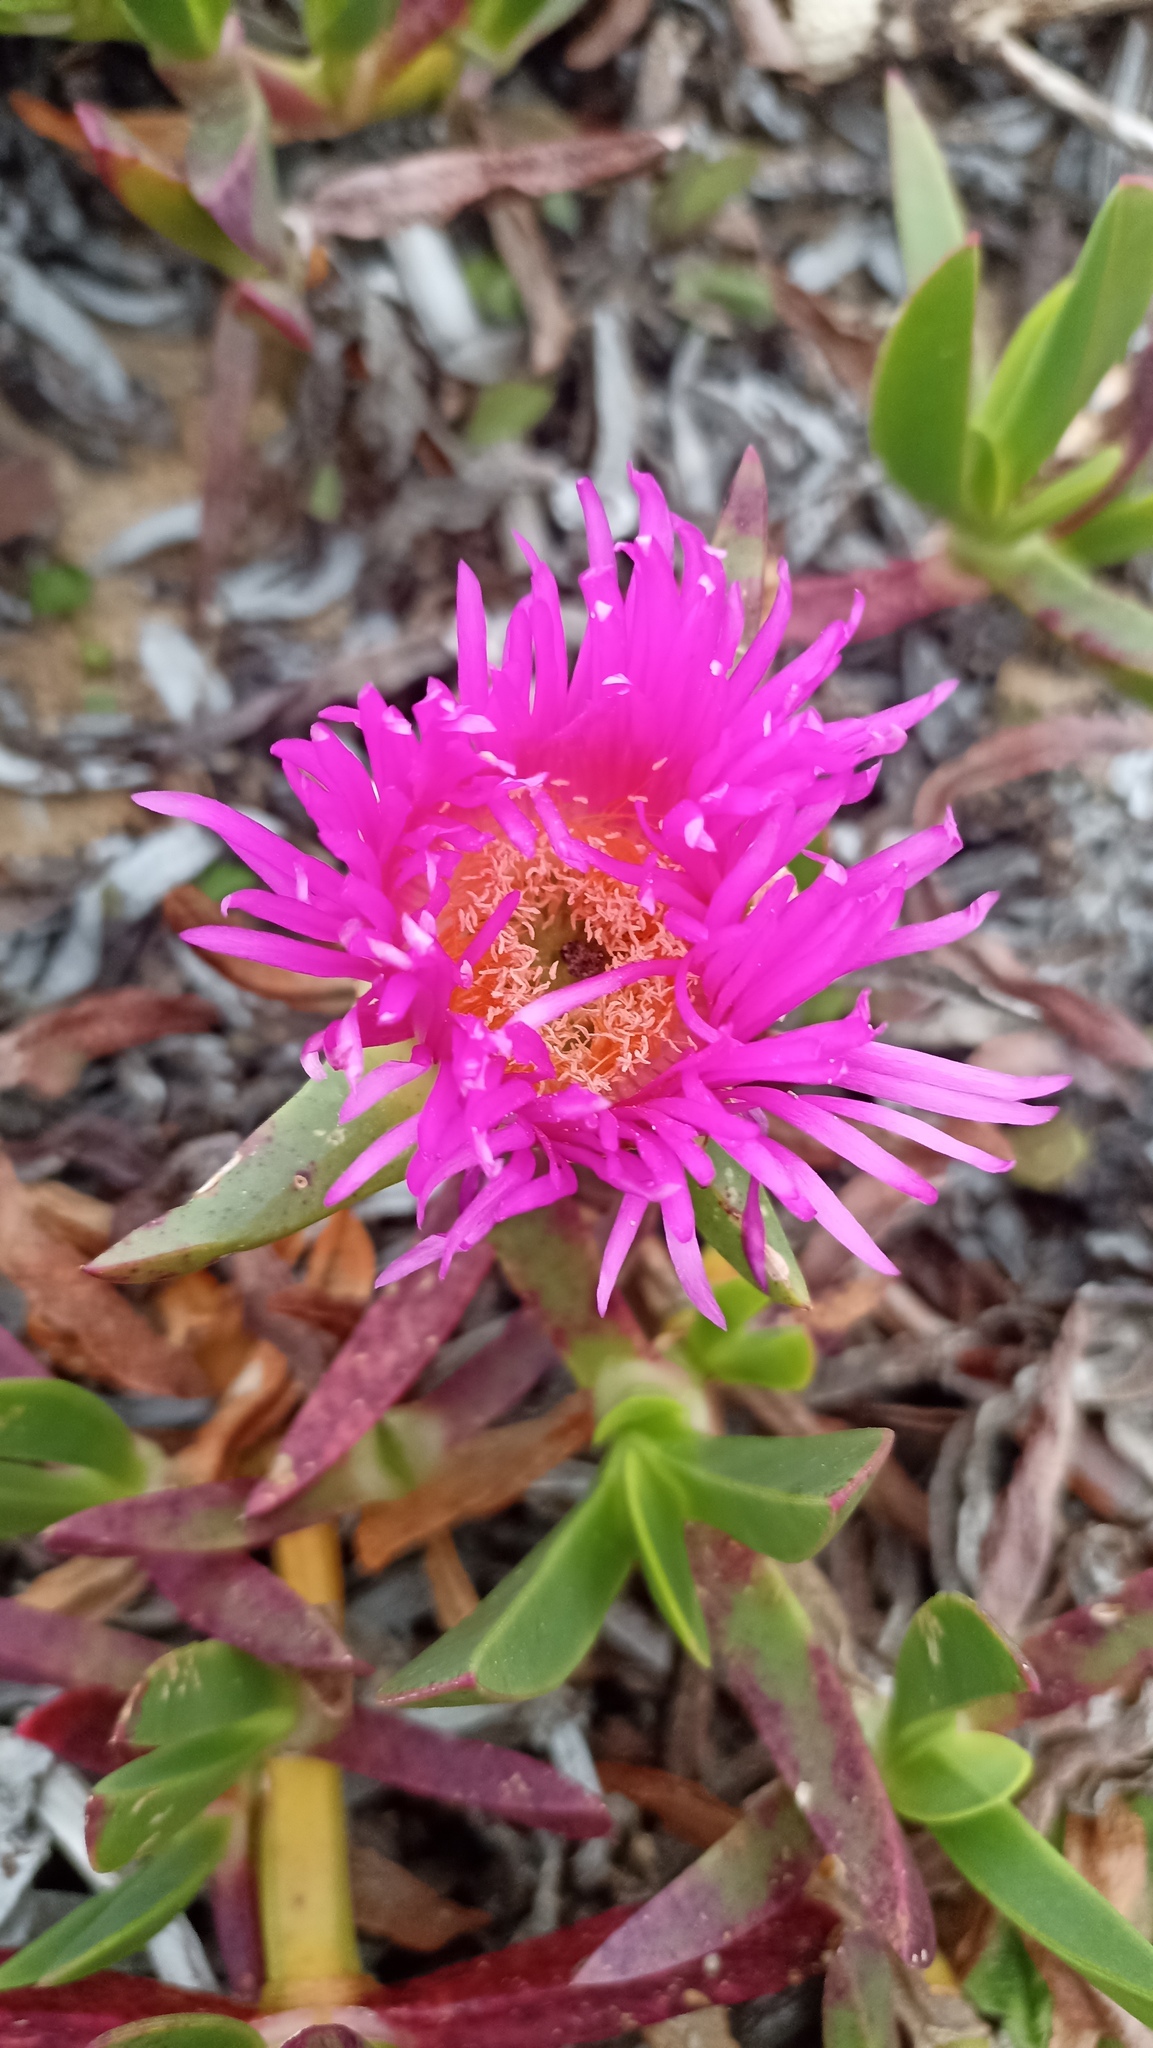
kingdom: Plantae
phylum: Tracheophyta
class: Magnoliopsida
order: Caryophyllales
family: Aizoaceae
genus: Carpobrotus
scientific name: Carpobrotus acinaciformis
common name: Sally-my-handsome
